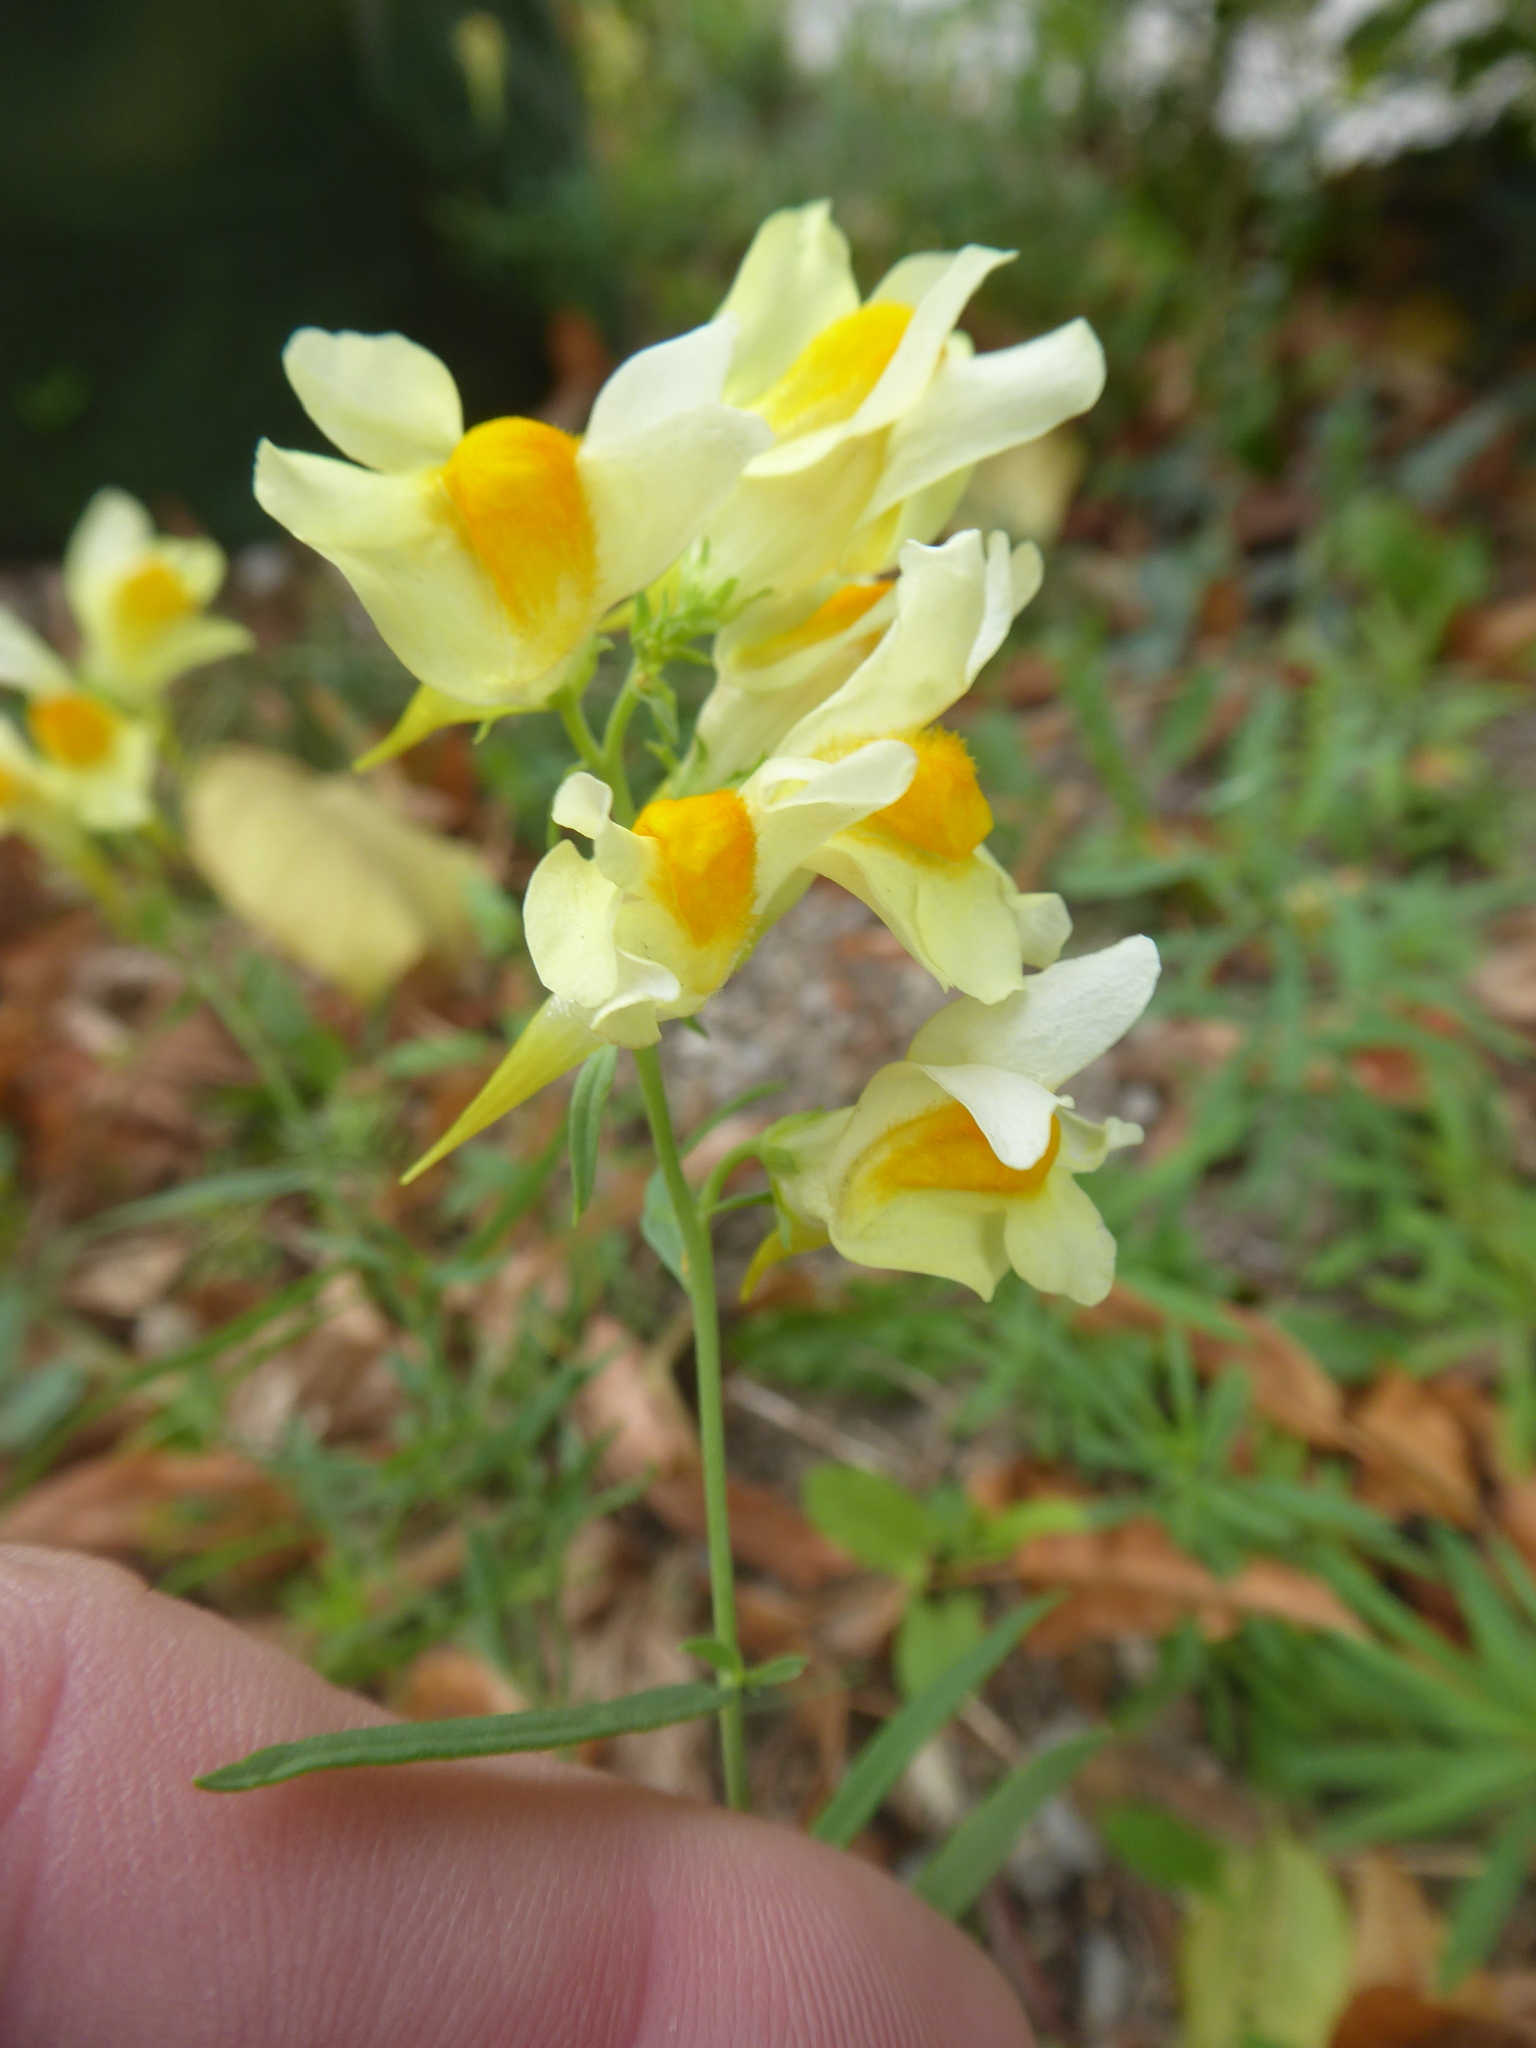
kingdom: Plantae
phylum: Tracheophyta
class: Magnoliopsida
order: Lamiales
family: Plantaginaceae
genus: Linaria
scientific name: Linaria vulgaris
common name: Butter and eggs
